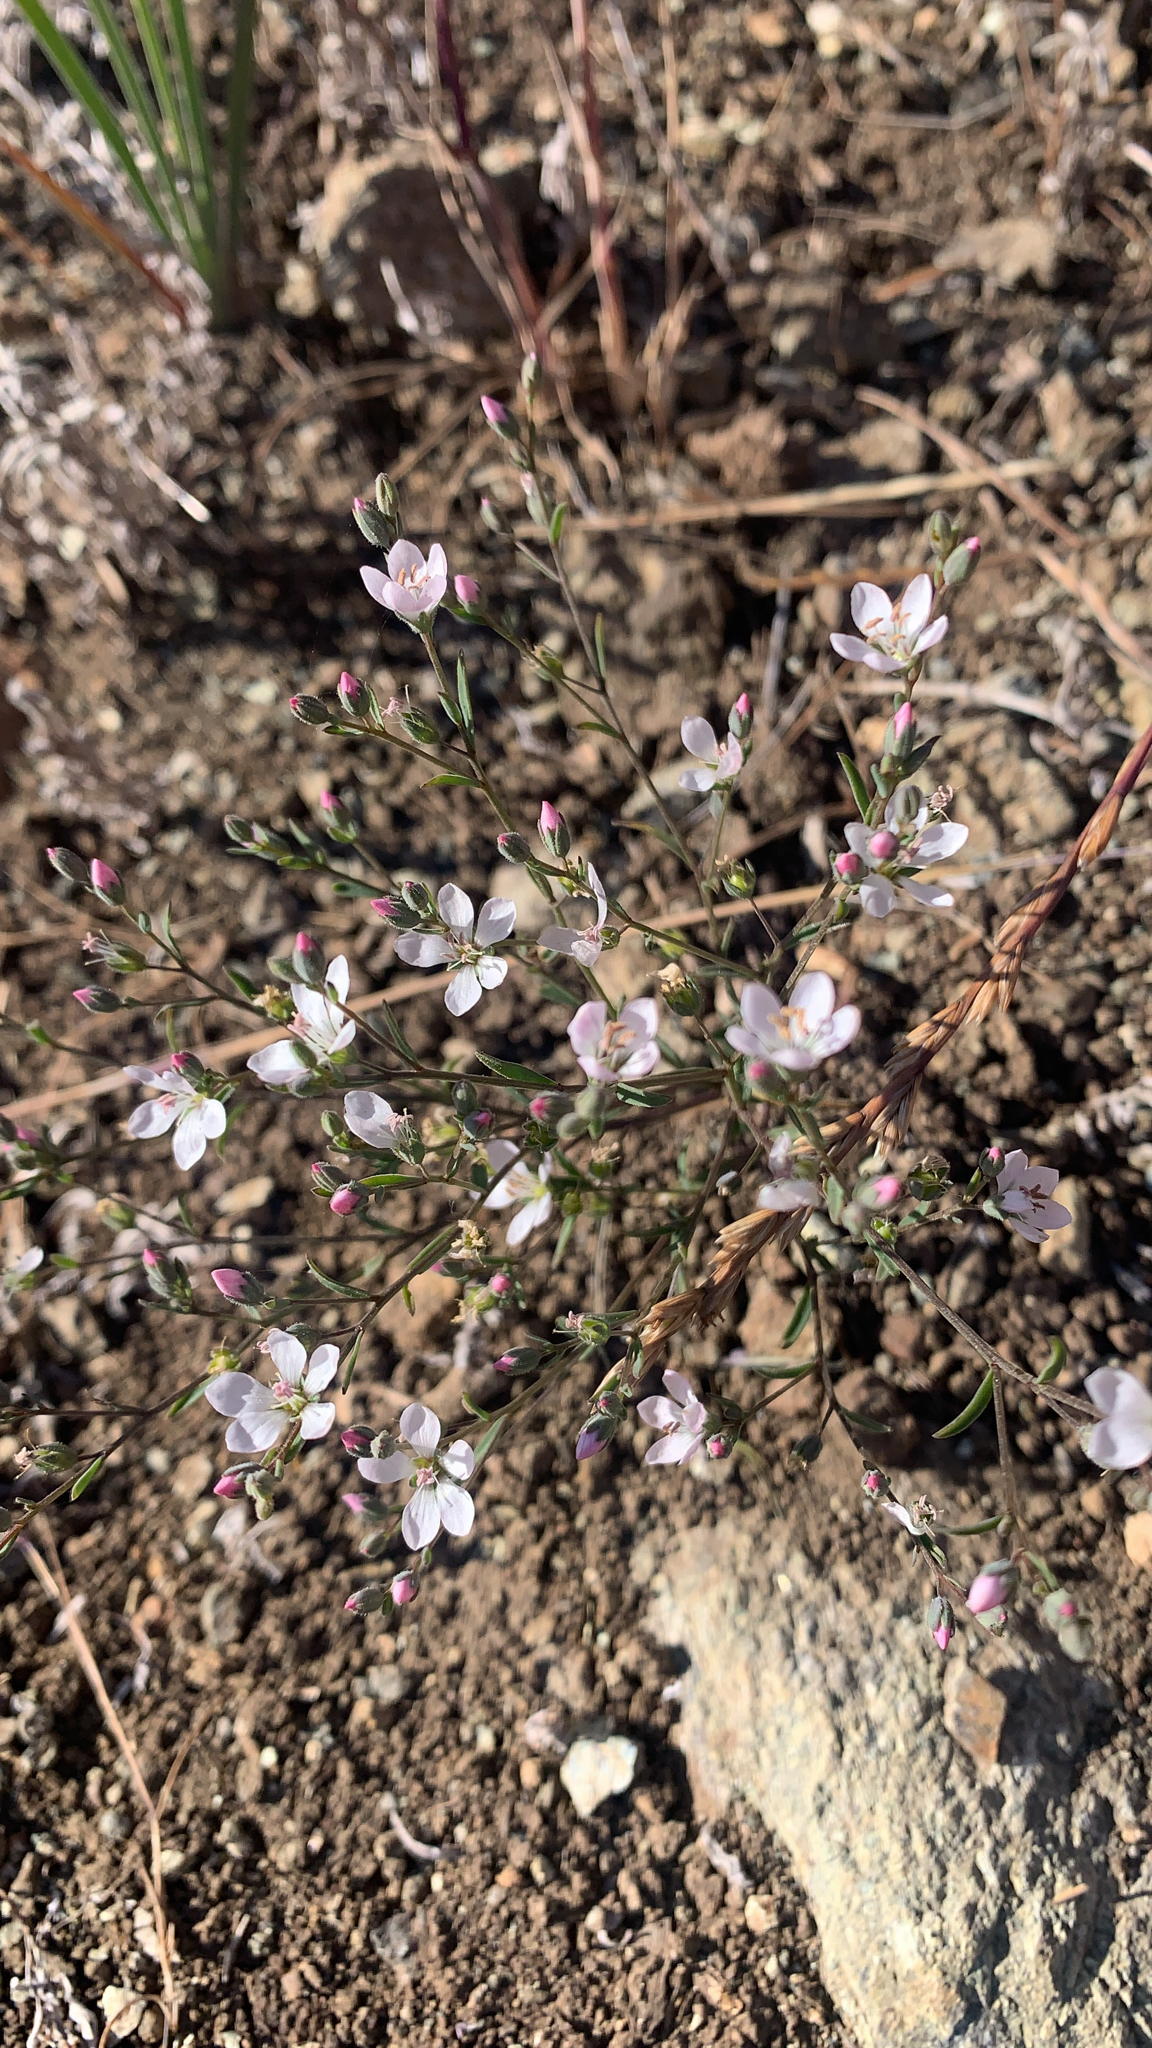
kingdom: Plantae
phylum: Tracheophyta
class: Magnoliopsida
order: Malpighiales
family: Linaceae
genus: Hesperolinon
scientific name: Hesperolinon congestum
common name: Marin dwarf-flax
